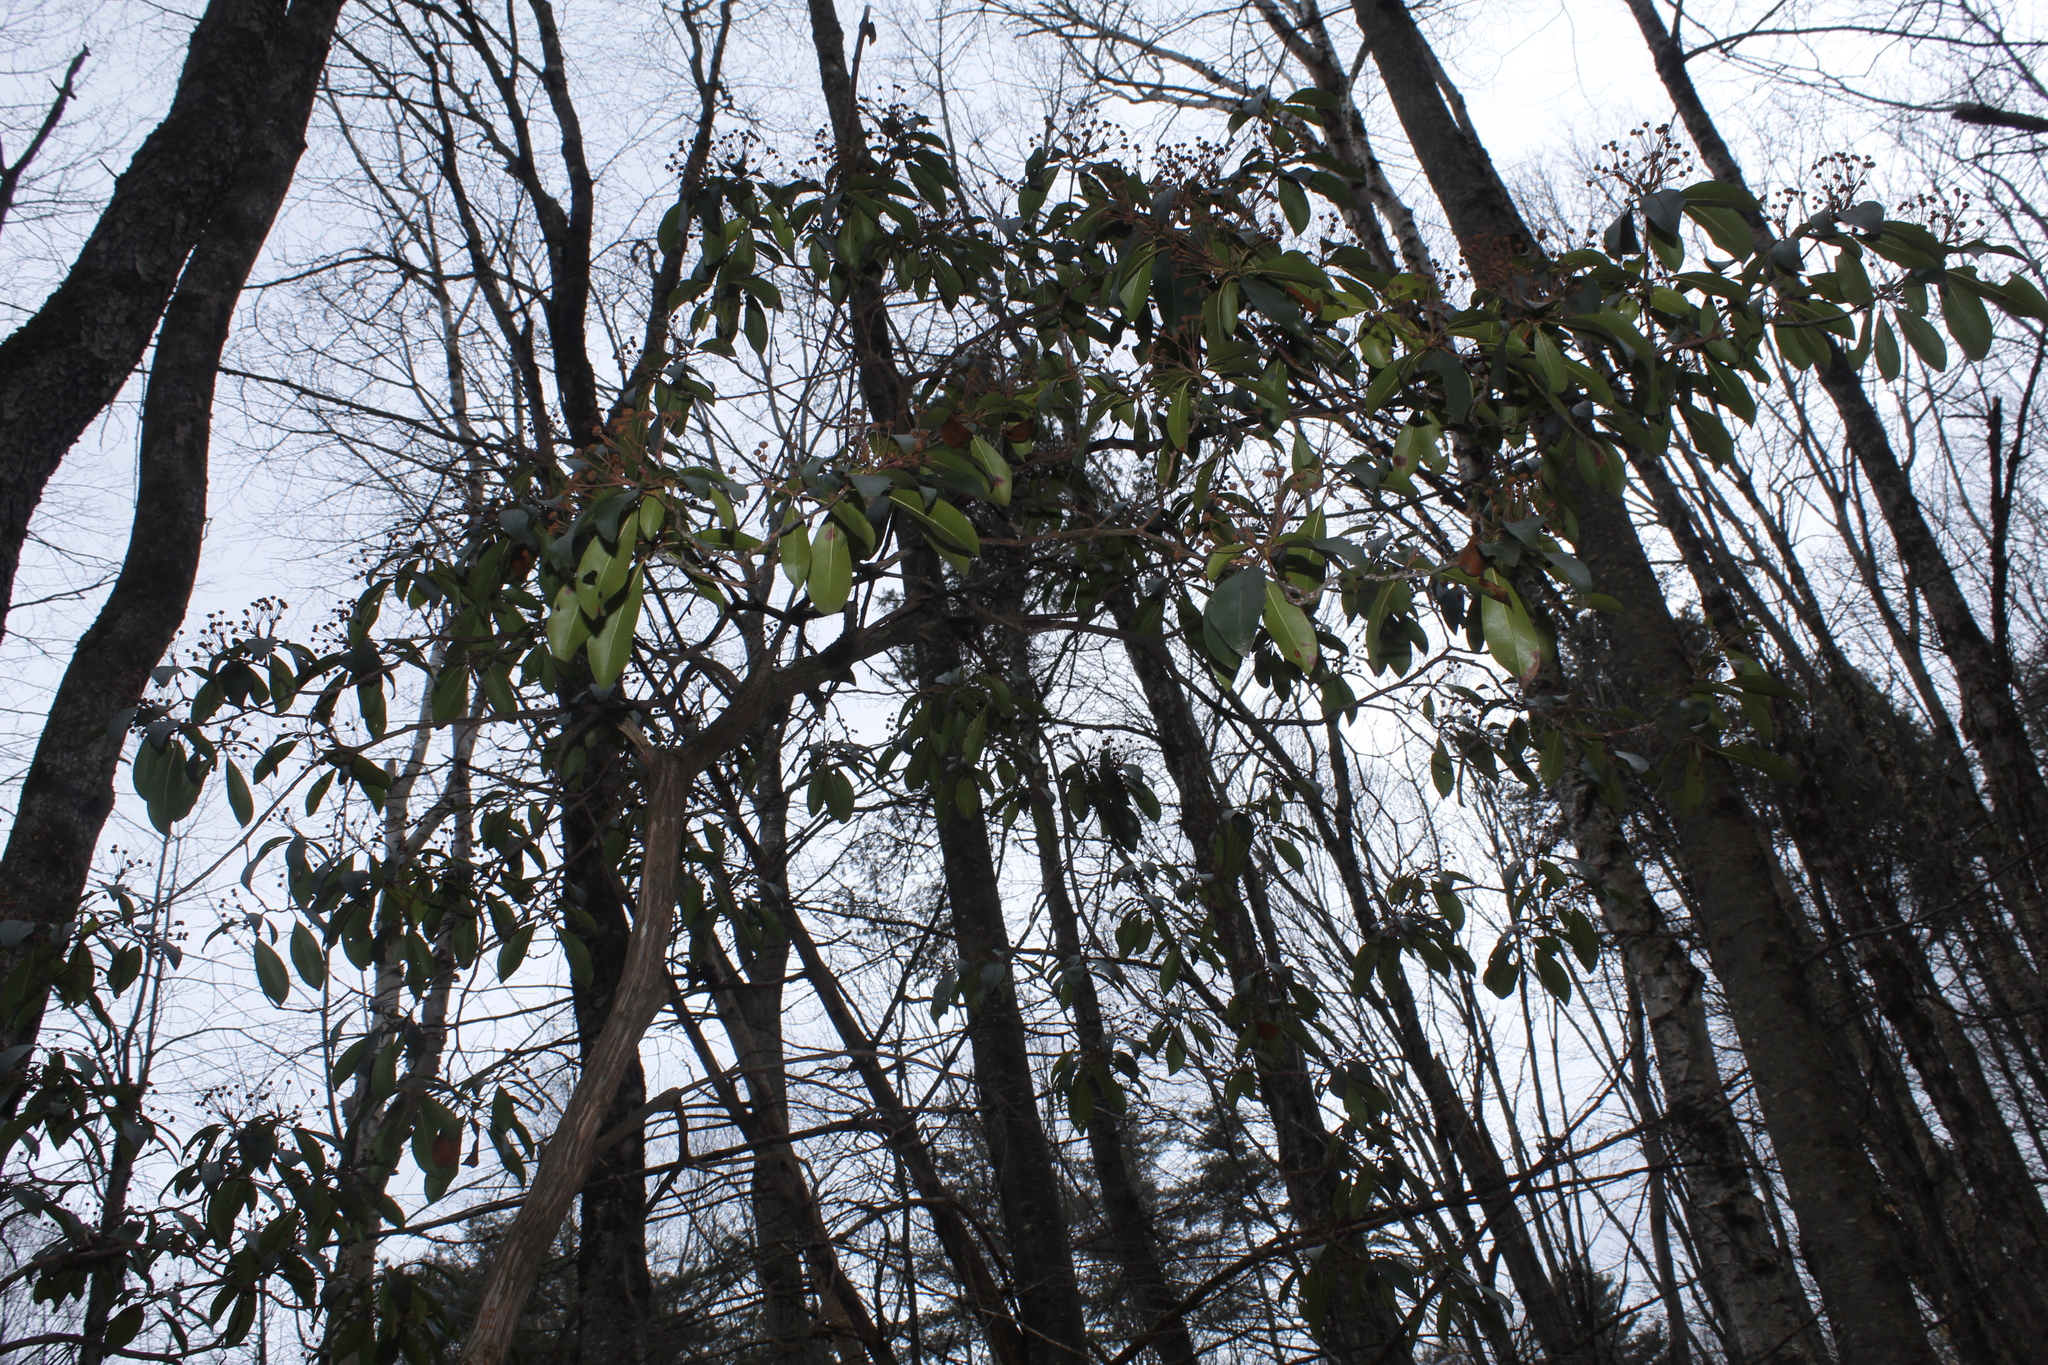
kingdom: Plantae
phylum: Tracheophyta
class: Magnoliopsida
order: Ericales
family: Ericaceae
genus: Kalmia
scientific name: Kalmia latifolia
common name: Mountain-laurel
